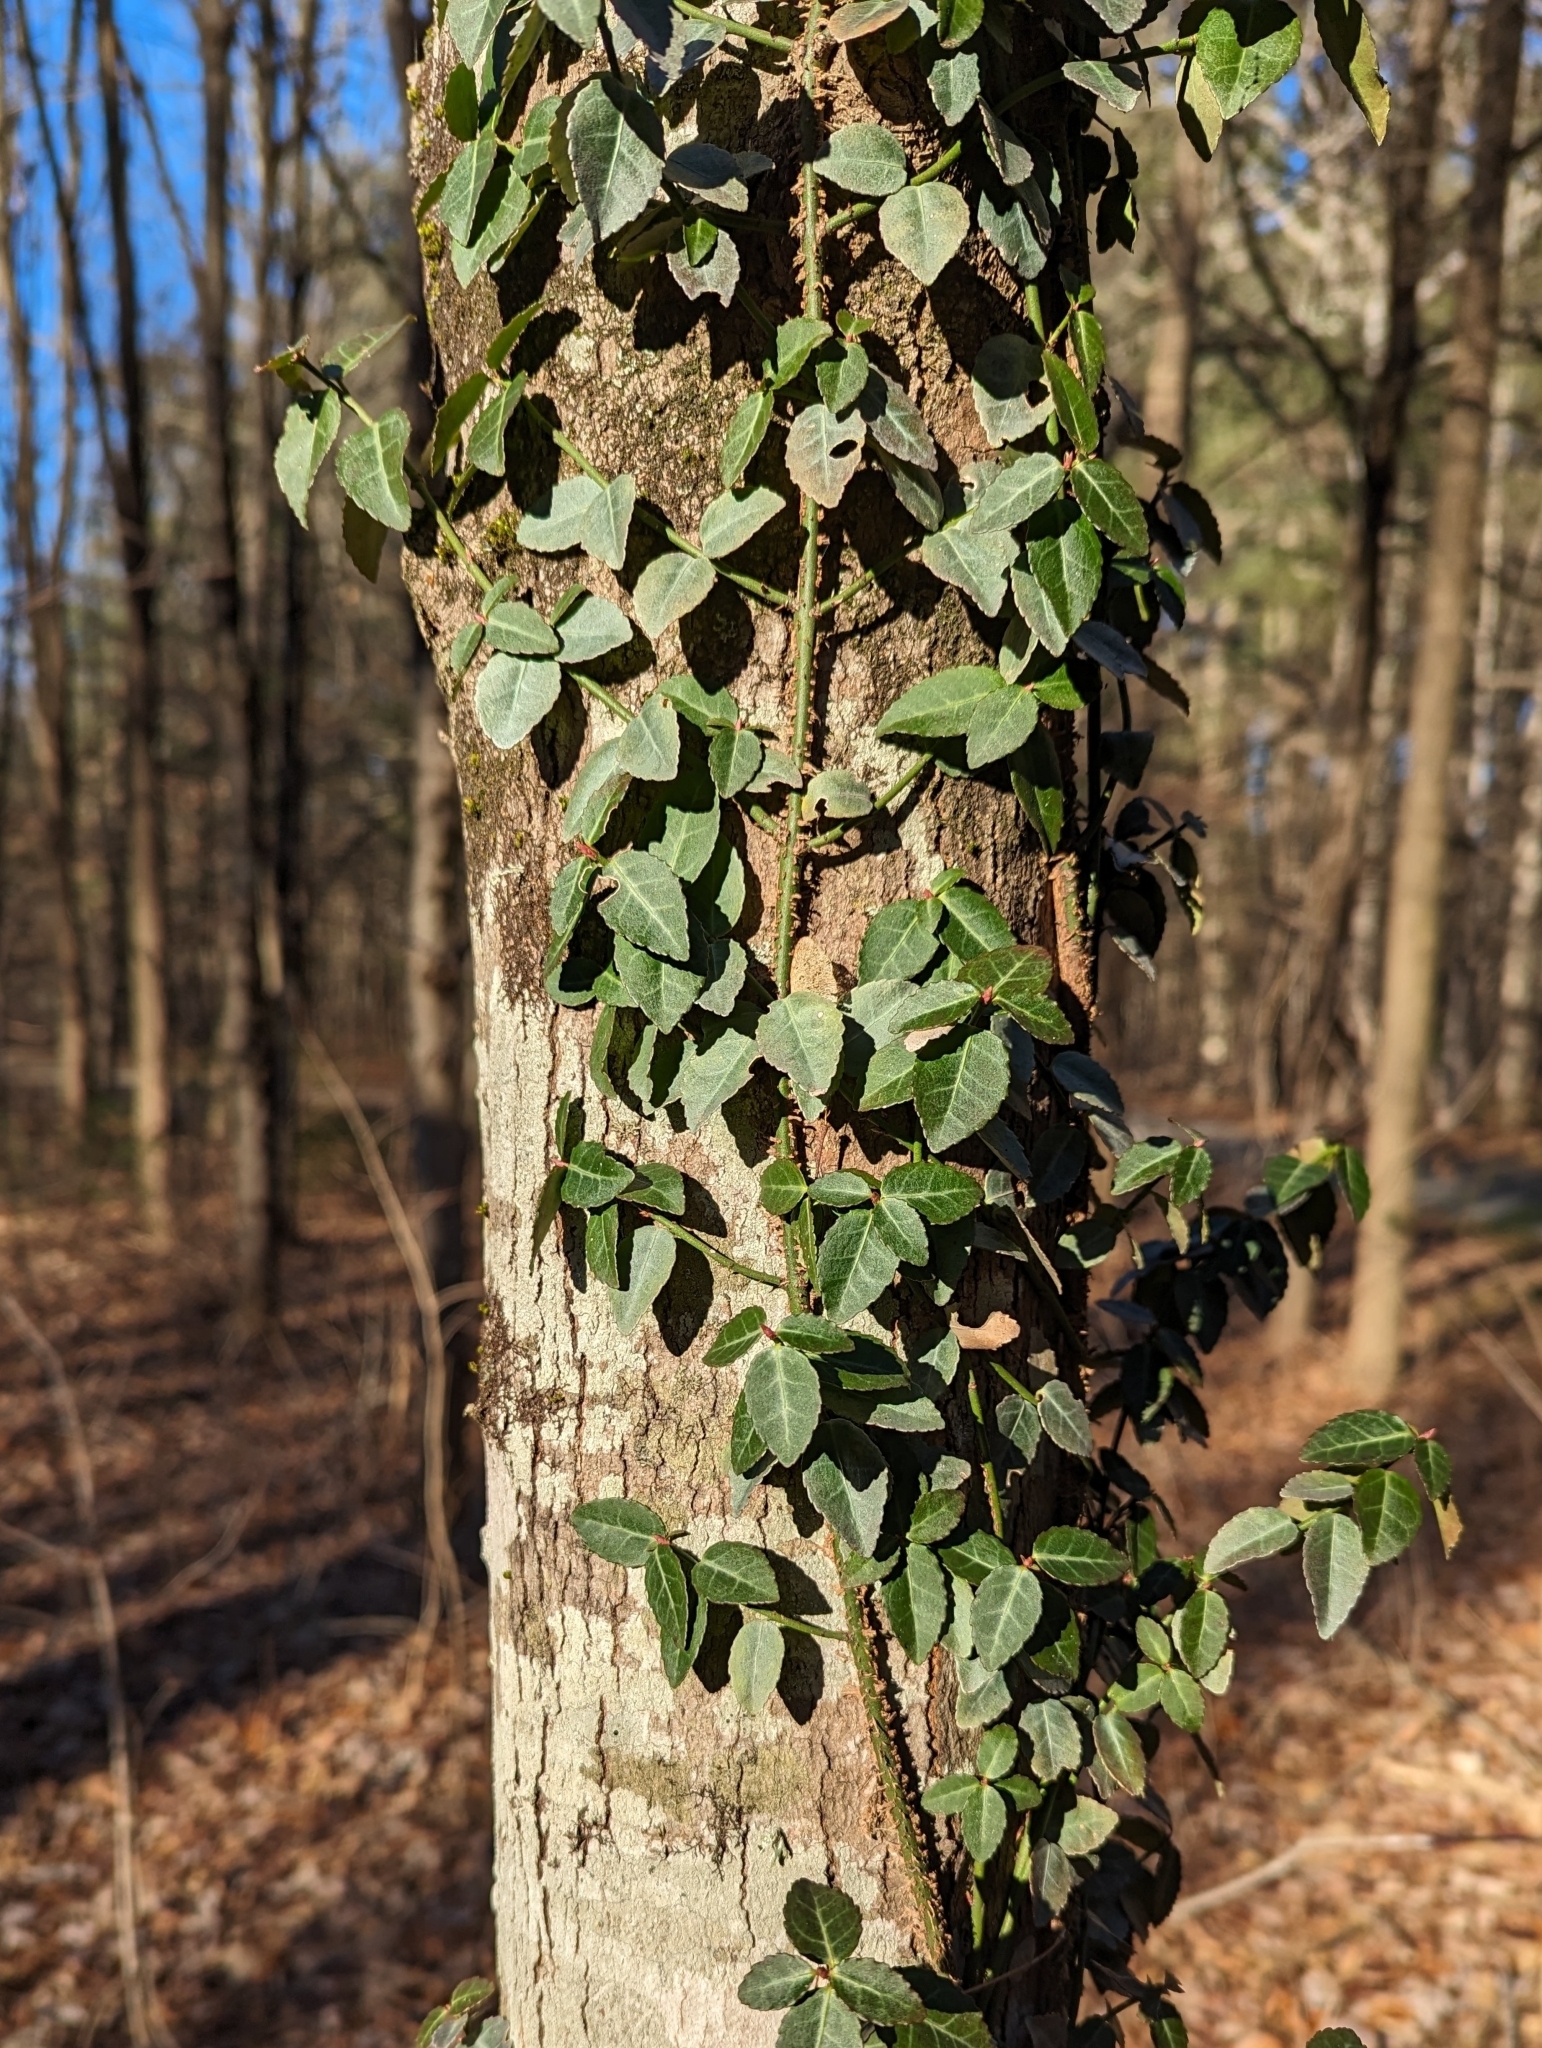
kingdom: Plantae
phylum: Tracheophyta
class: Magnoliopsida
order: Celastrales
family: Celastraceae
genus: Euonymus
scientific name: Euonymus fortunei
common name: Climbing euonymus
